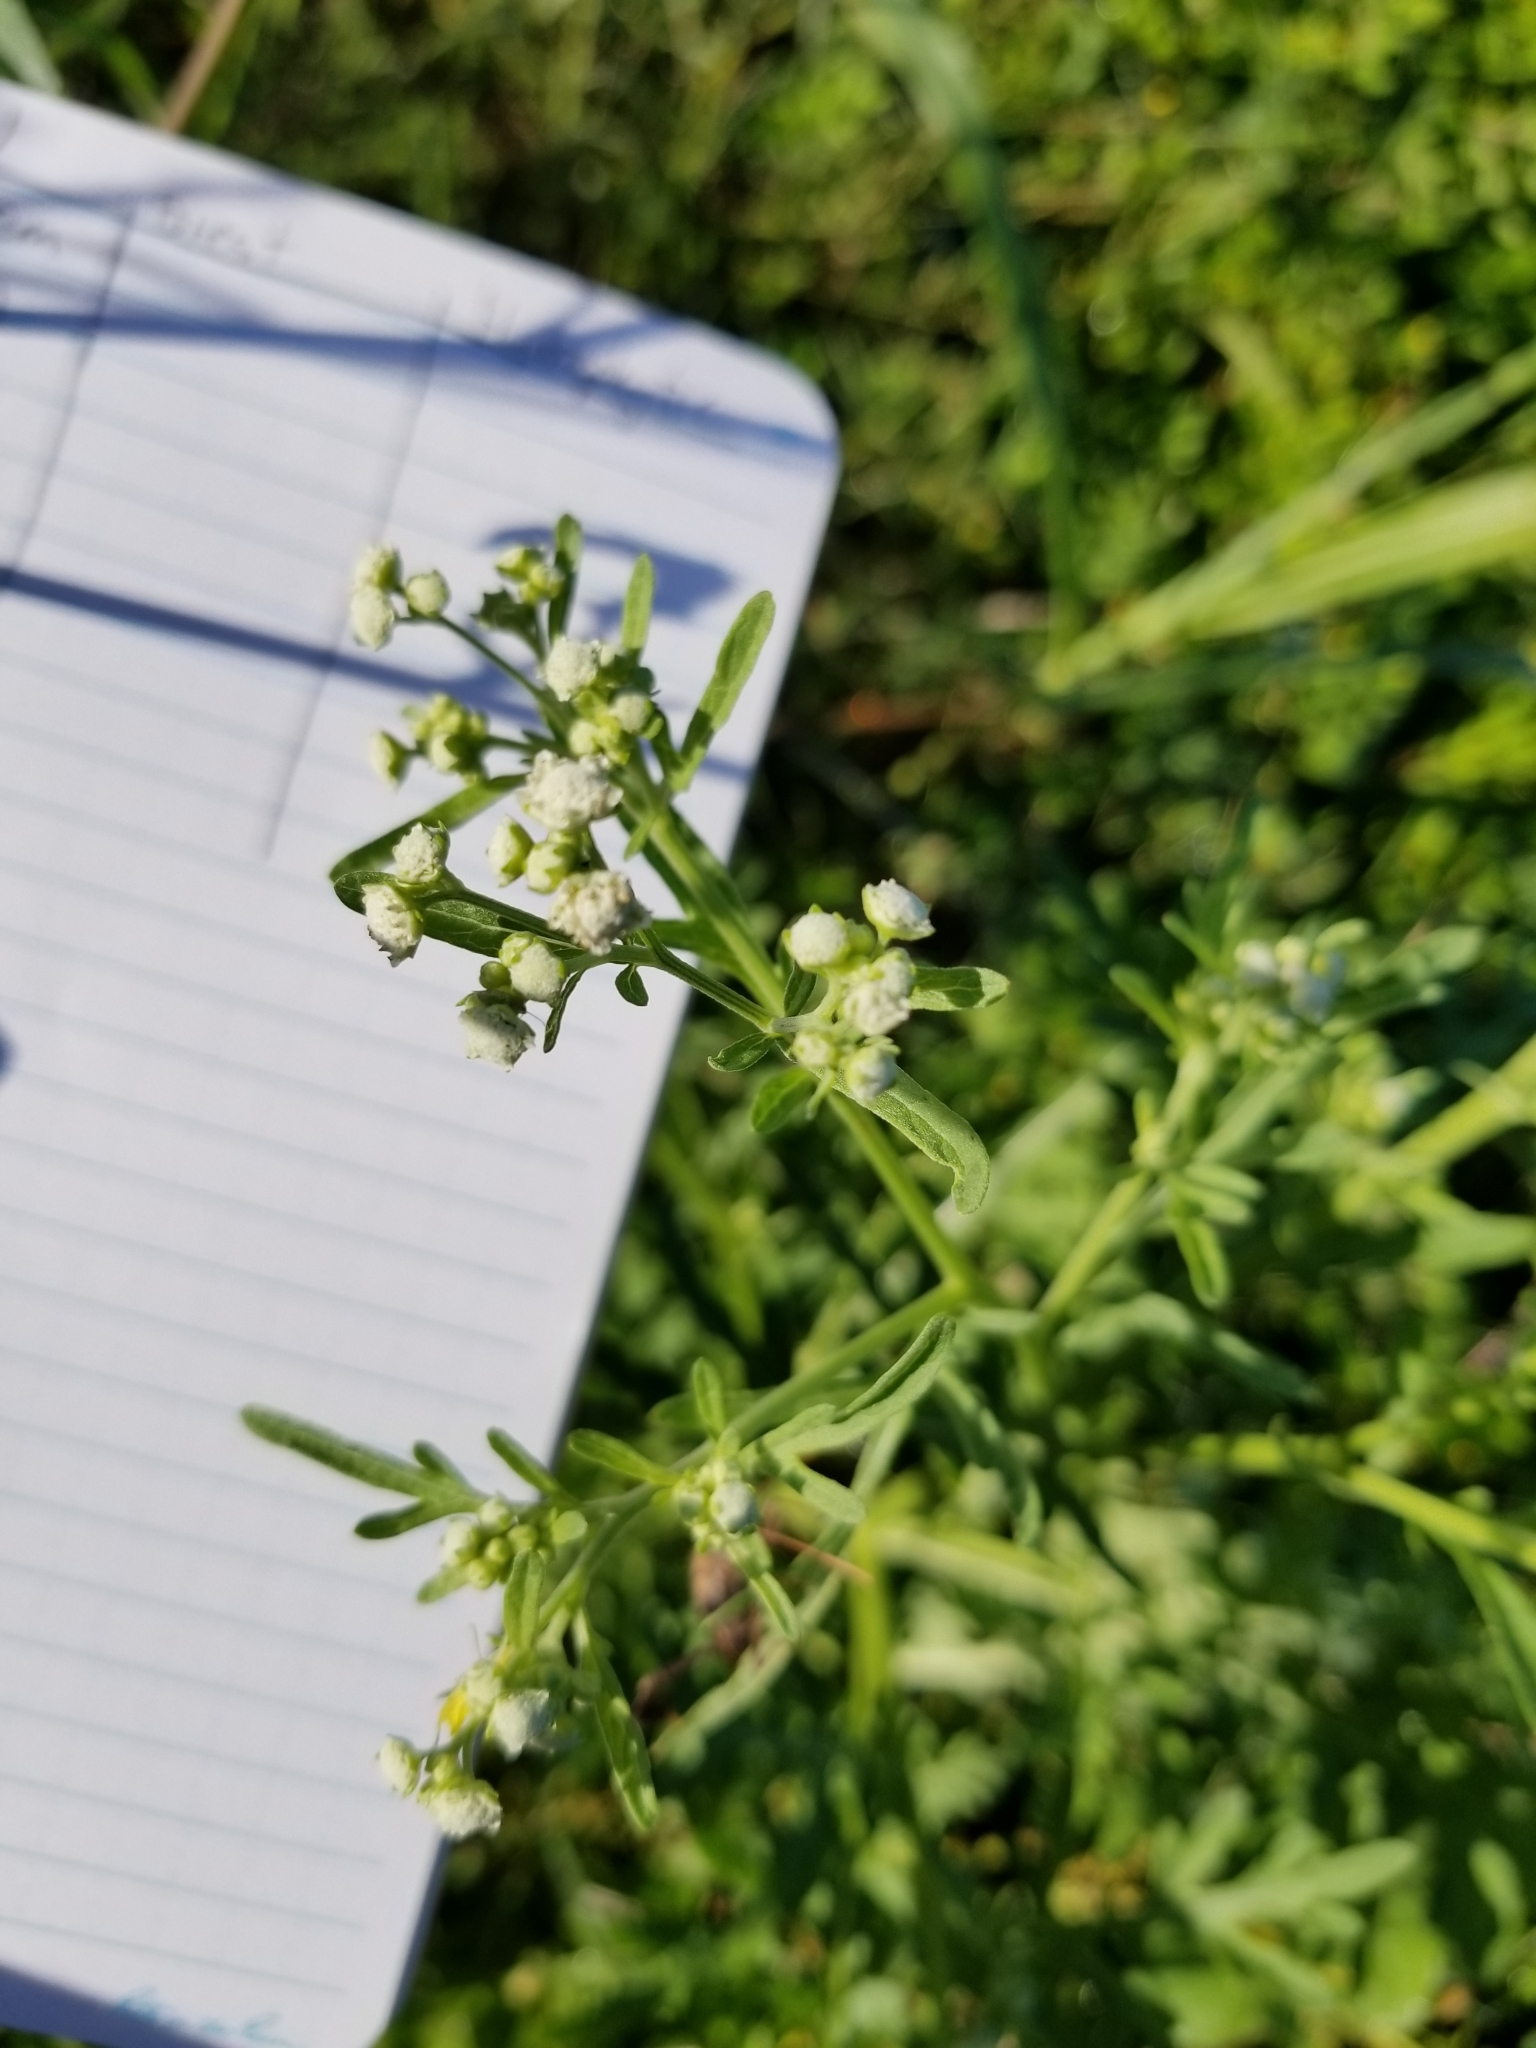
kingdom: Plantae
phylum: Tracheophyta
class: Magnoliopsida
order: Asterales
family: Asteraceae
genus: Parthenium
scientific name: Parthenium hysterophorus
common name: Santa maria feverfew
